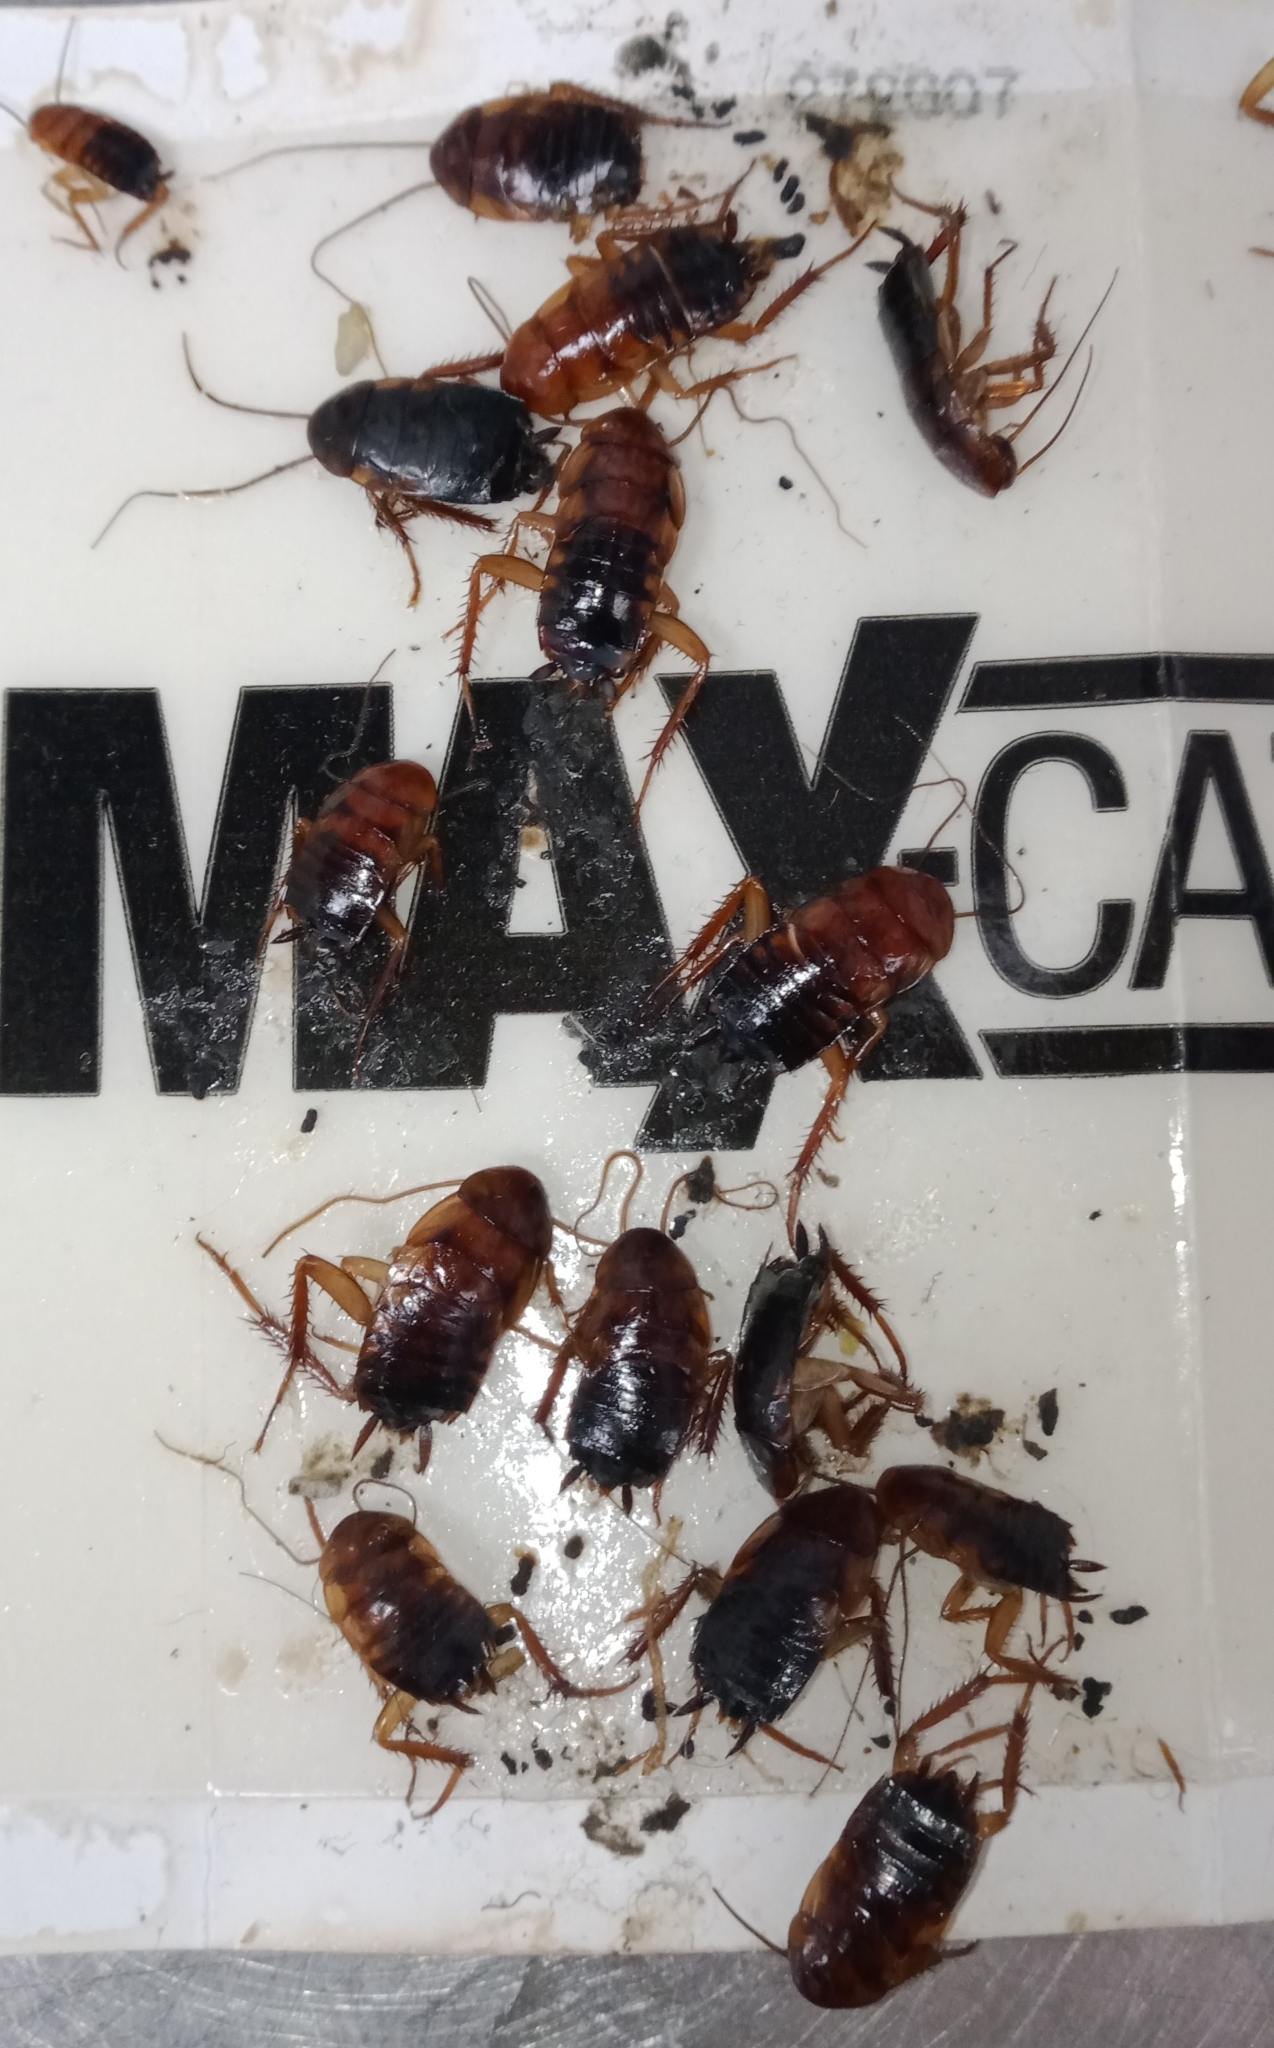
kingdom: Animalia
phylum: Arthropoda
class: Insecta
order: Blattodea
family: Blattidae
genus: Periplaneta
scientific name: Periplaneta lateralis
